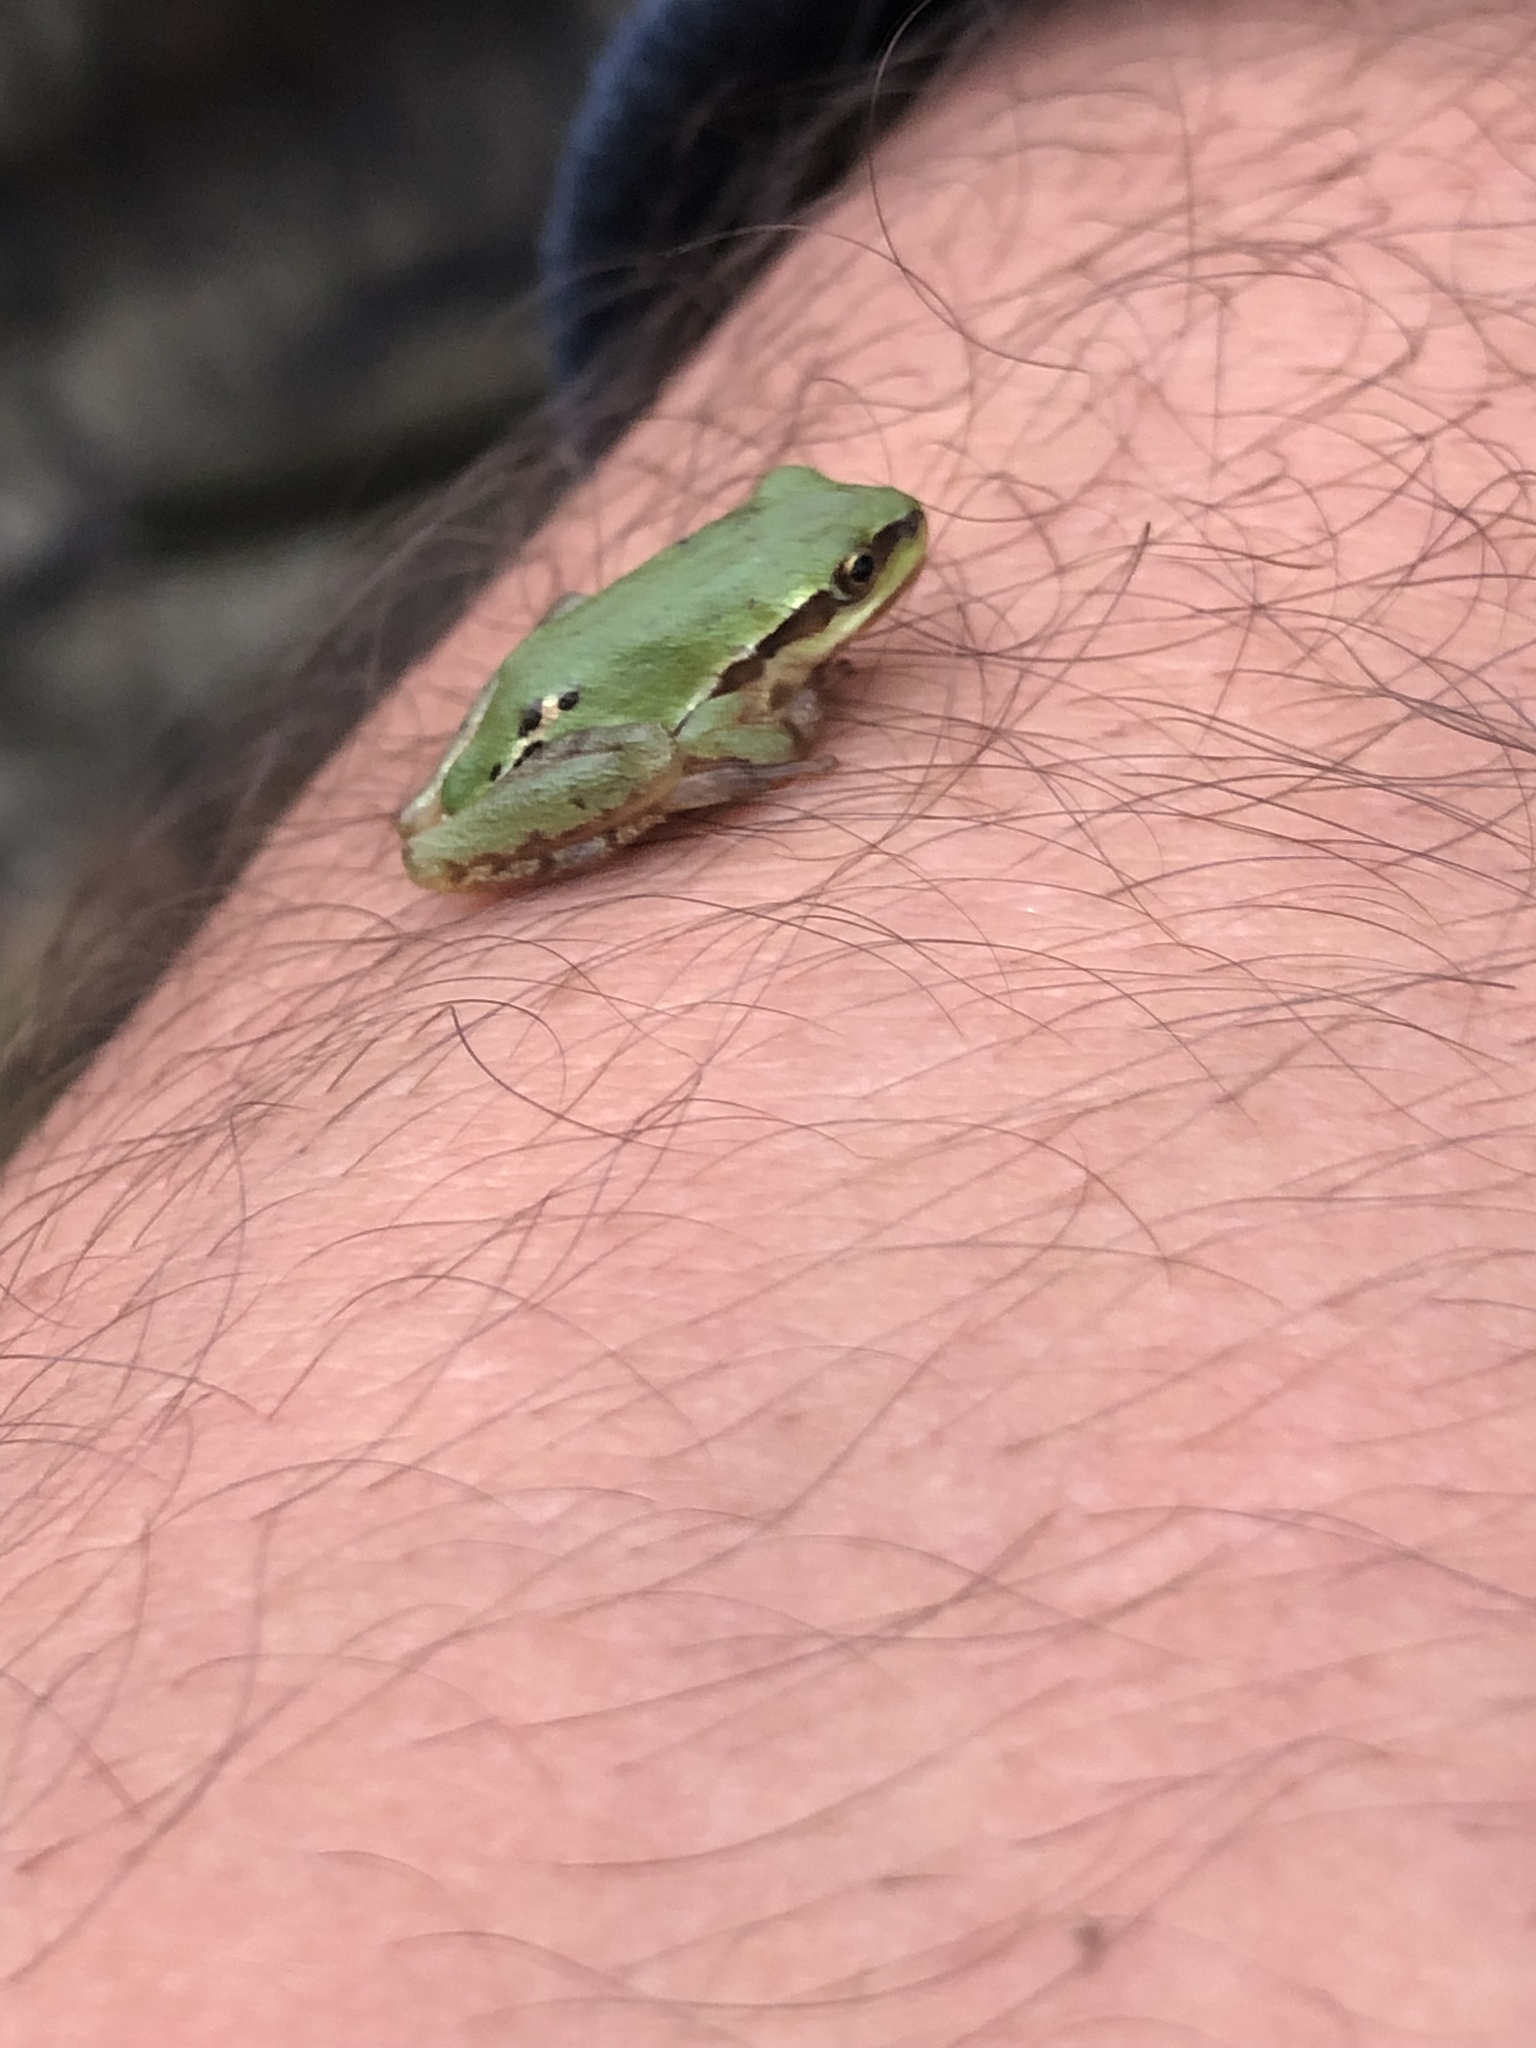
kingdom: Animalia
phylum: Chordata
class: Amphibia
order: Anura
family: Hylidae
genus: Dryophytes
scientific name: Dryophytes eximius
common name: Mountain treefrog
